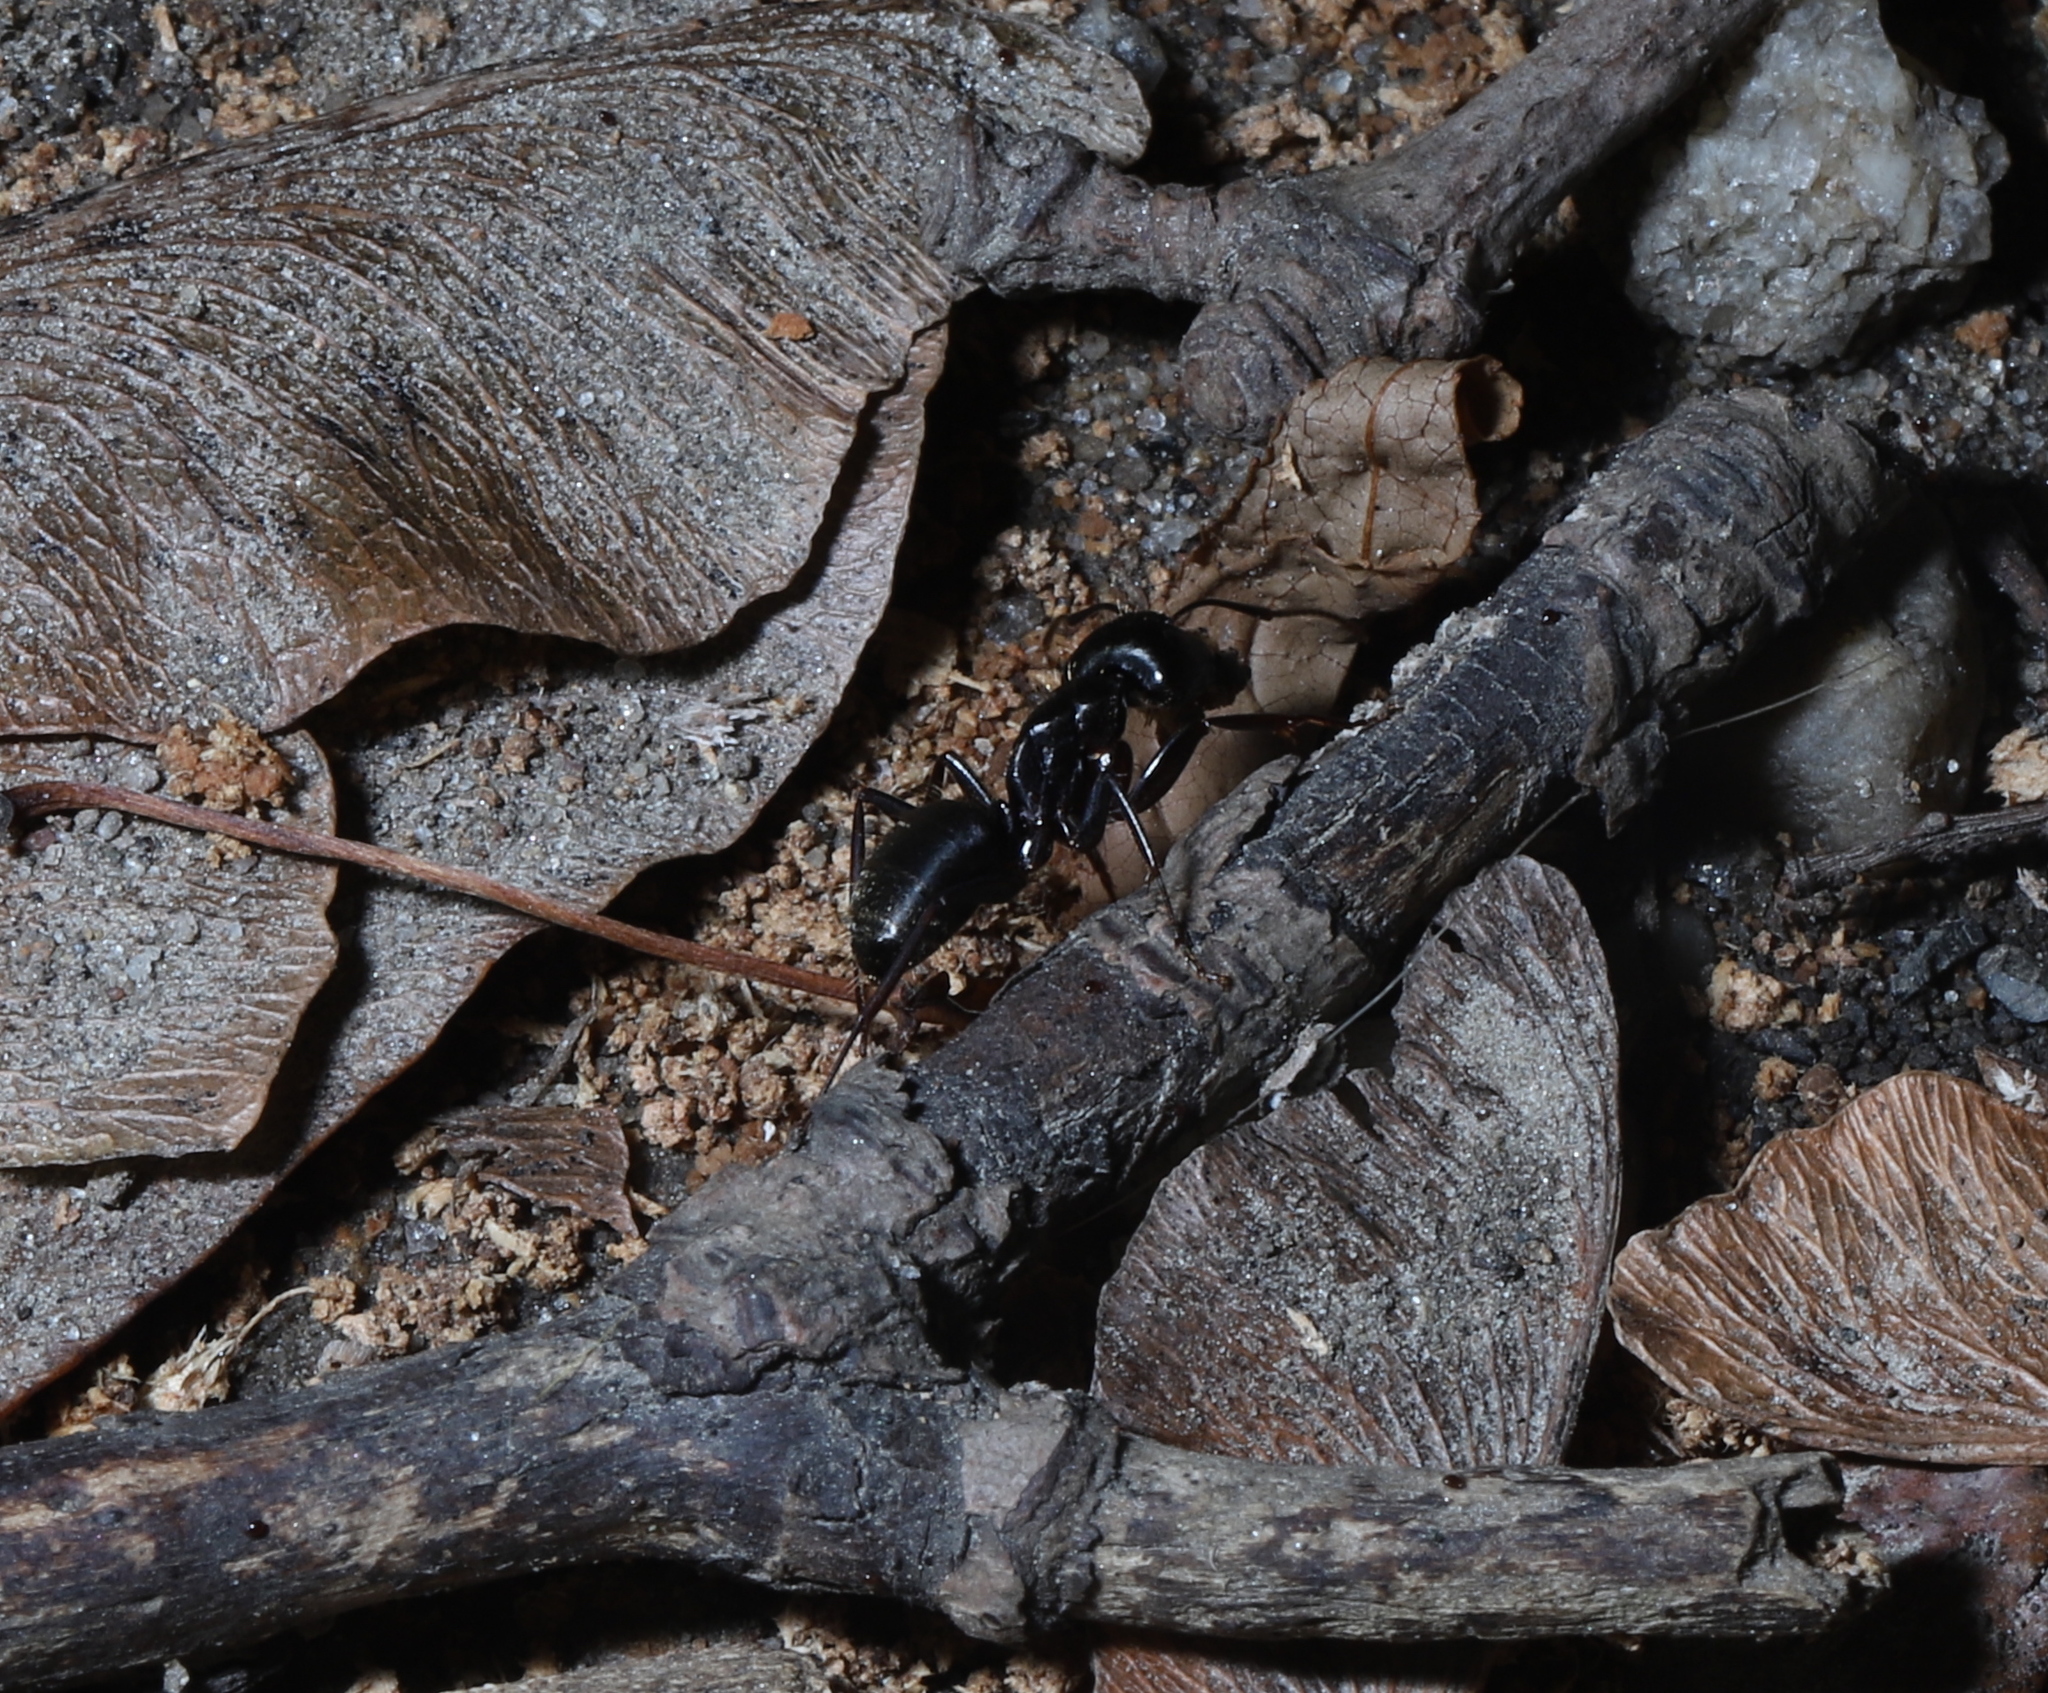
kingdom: Animalia
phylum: Arthropoda
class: Insecta
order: Hymenoptera
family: Formicidae
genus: Camponotus
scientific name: Camponotus pennsylvanicus
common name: Black carpenter ant
